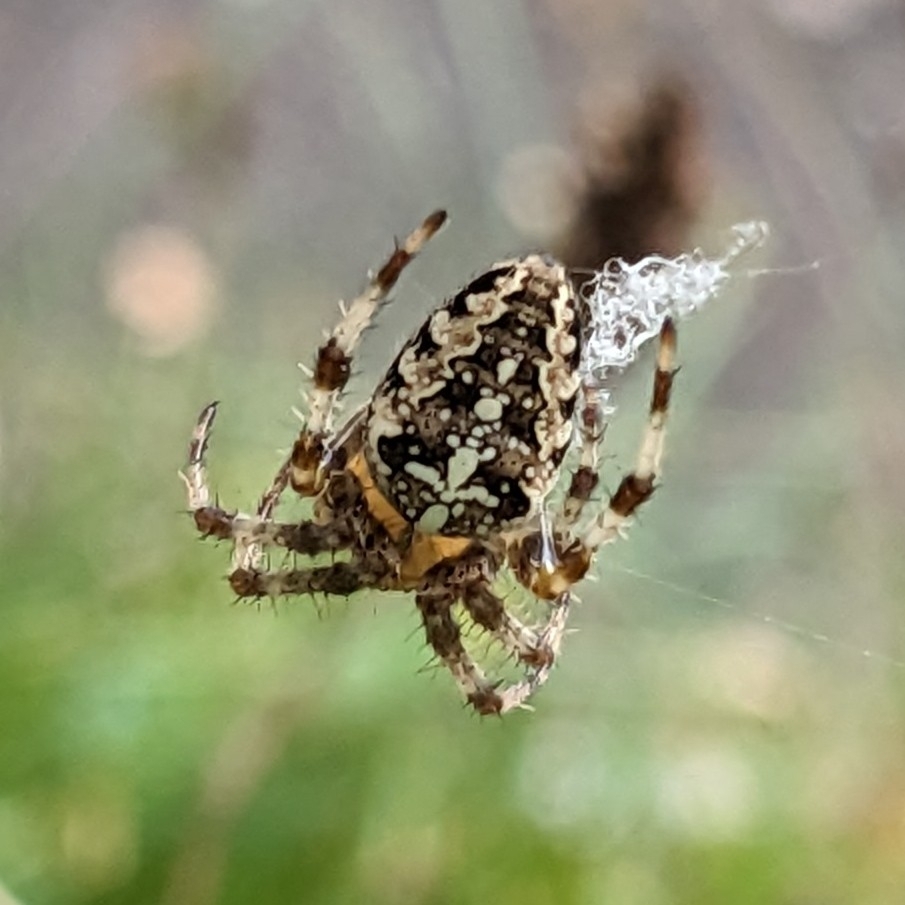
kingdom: Animalia
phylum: Arthropoda
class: Arachnida
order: Araneae
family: Araneidae
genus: Araneus
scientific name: Araneus diadematus
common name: Cross orbweaver
